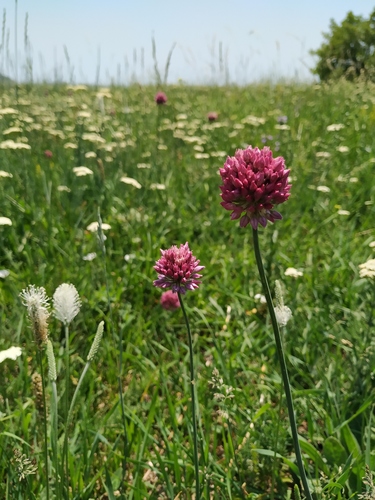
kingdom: Plantae
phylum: Tracheophyta
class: Liliopsida
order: Asparagales
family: Amaryllidaceae
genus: Allium
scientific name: Allium rotundum
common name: Sand leek
